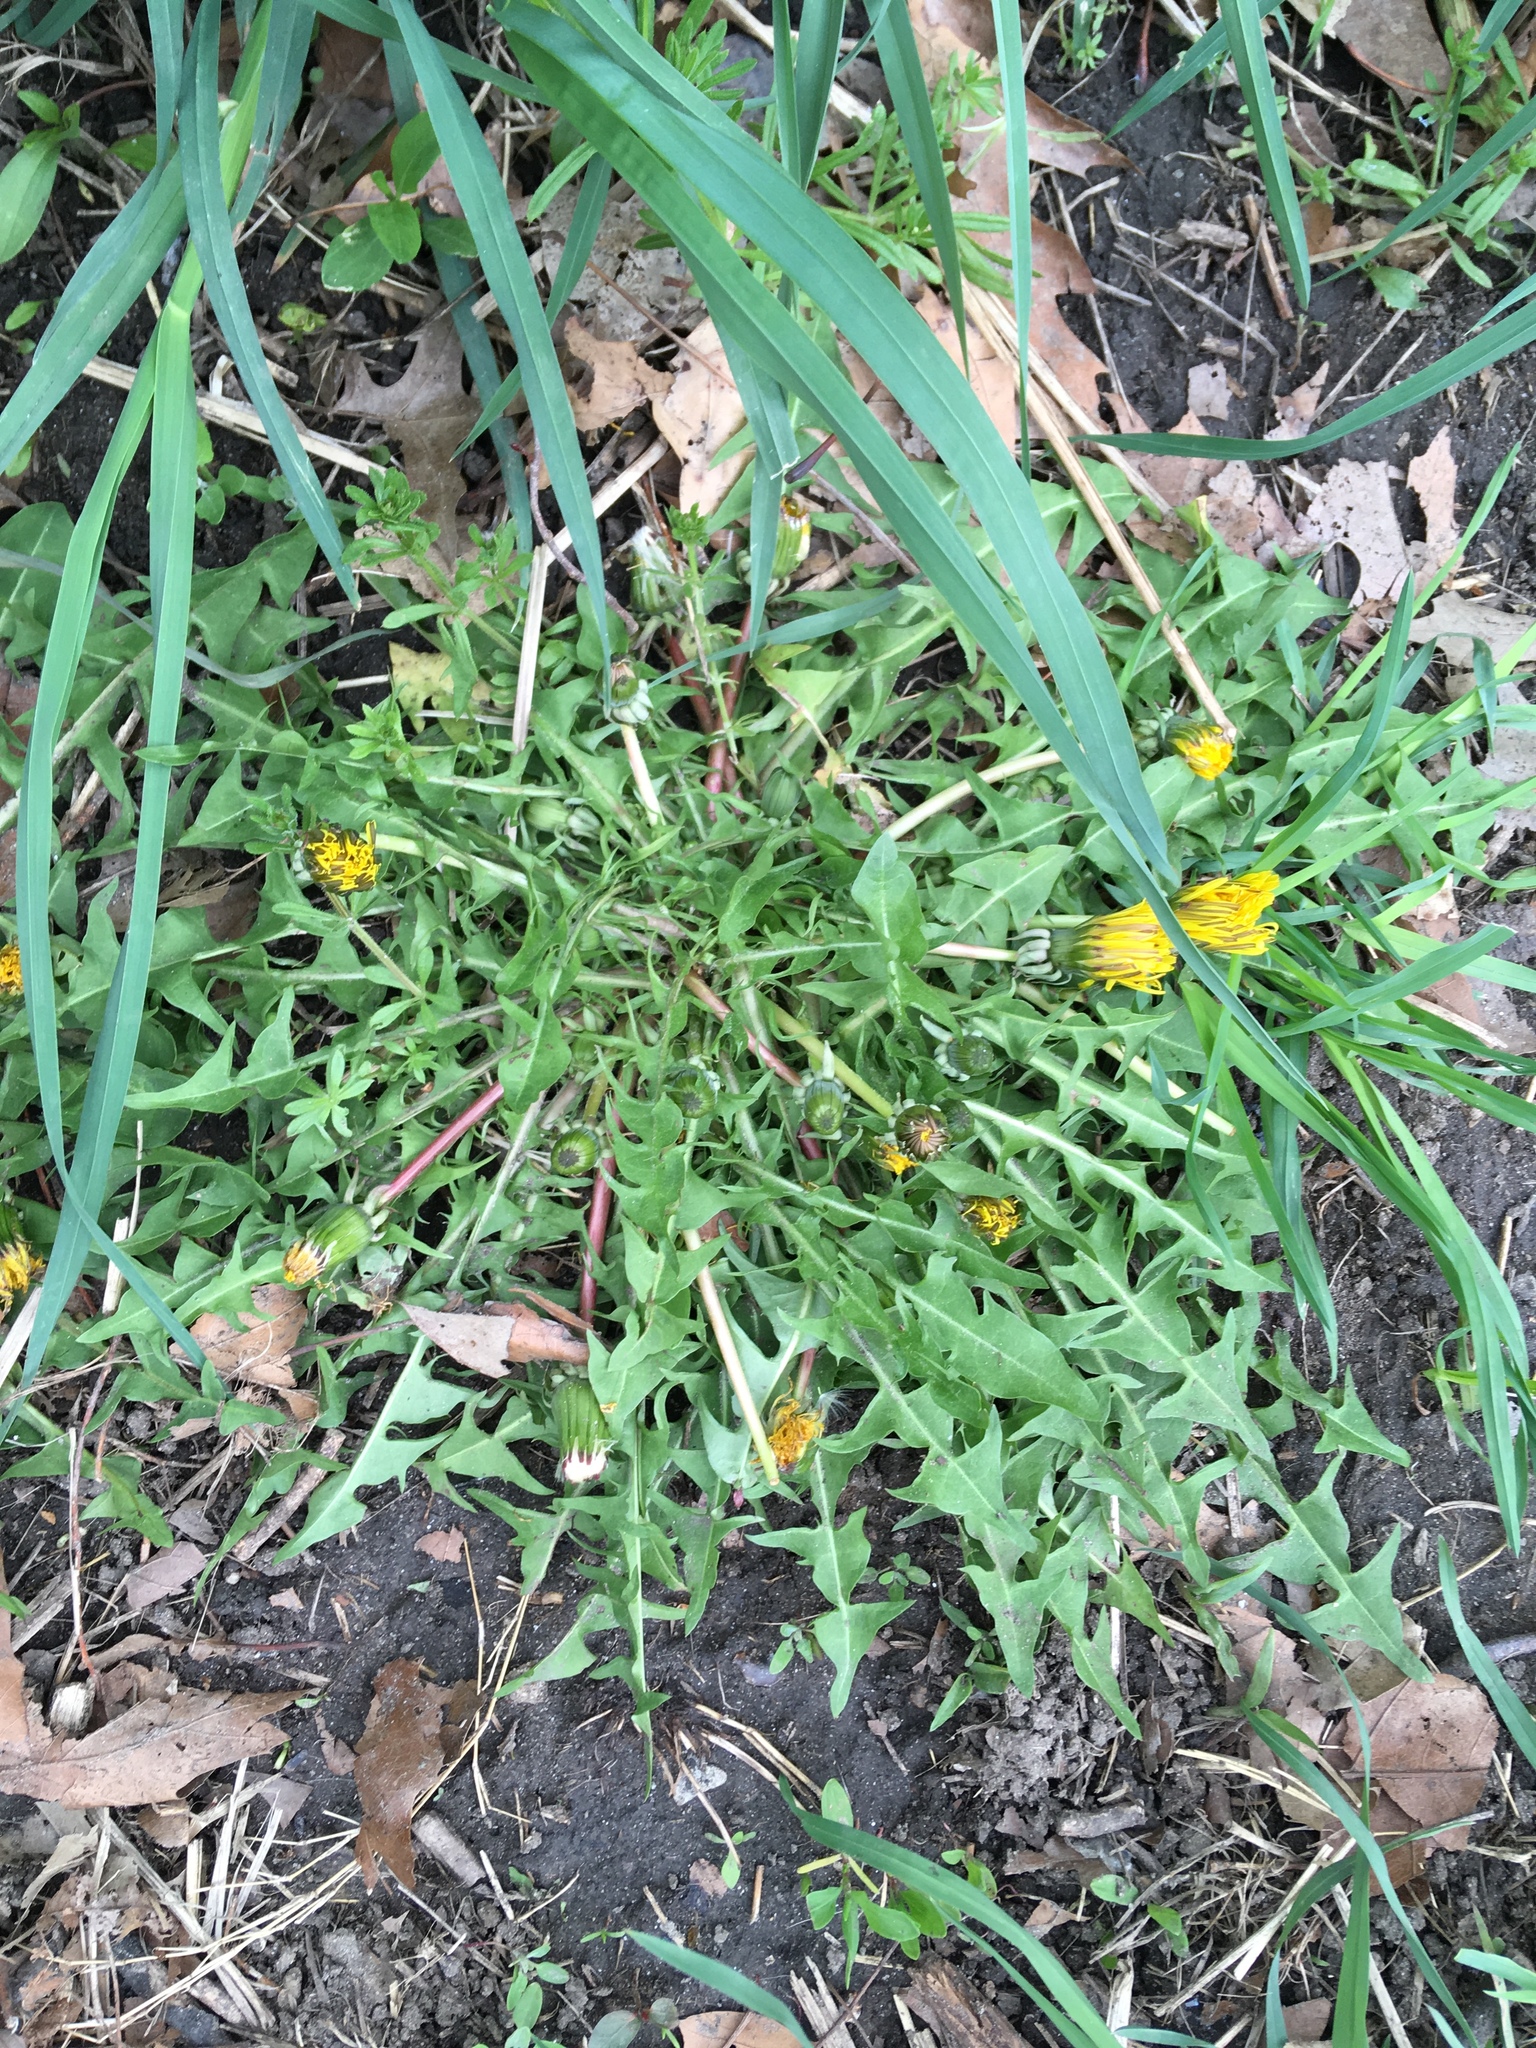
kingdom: Plantae
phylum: Tracheophyta
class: Magnoliopsida
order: Asterales
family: Asteraceae
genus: Taraxacum
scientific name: Taraxacum officinale
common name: Common dandelion
